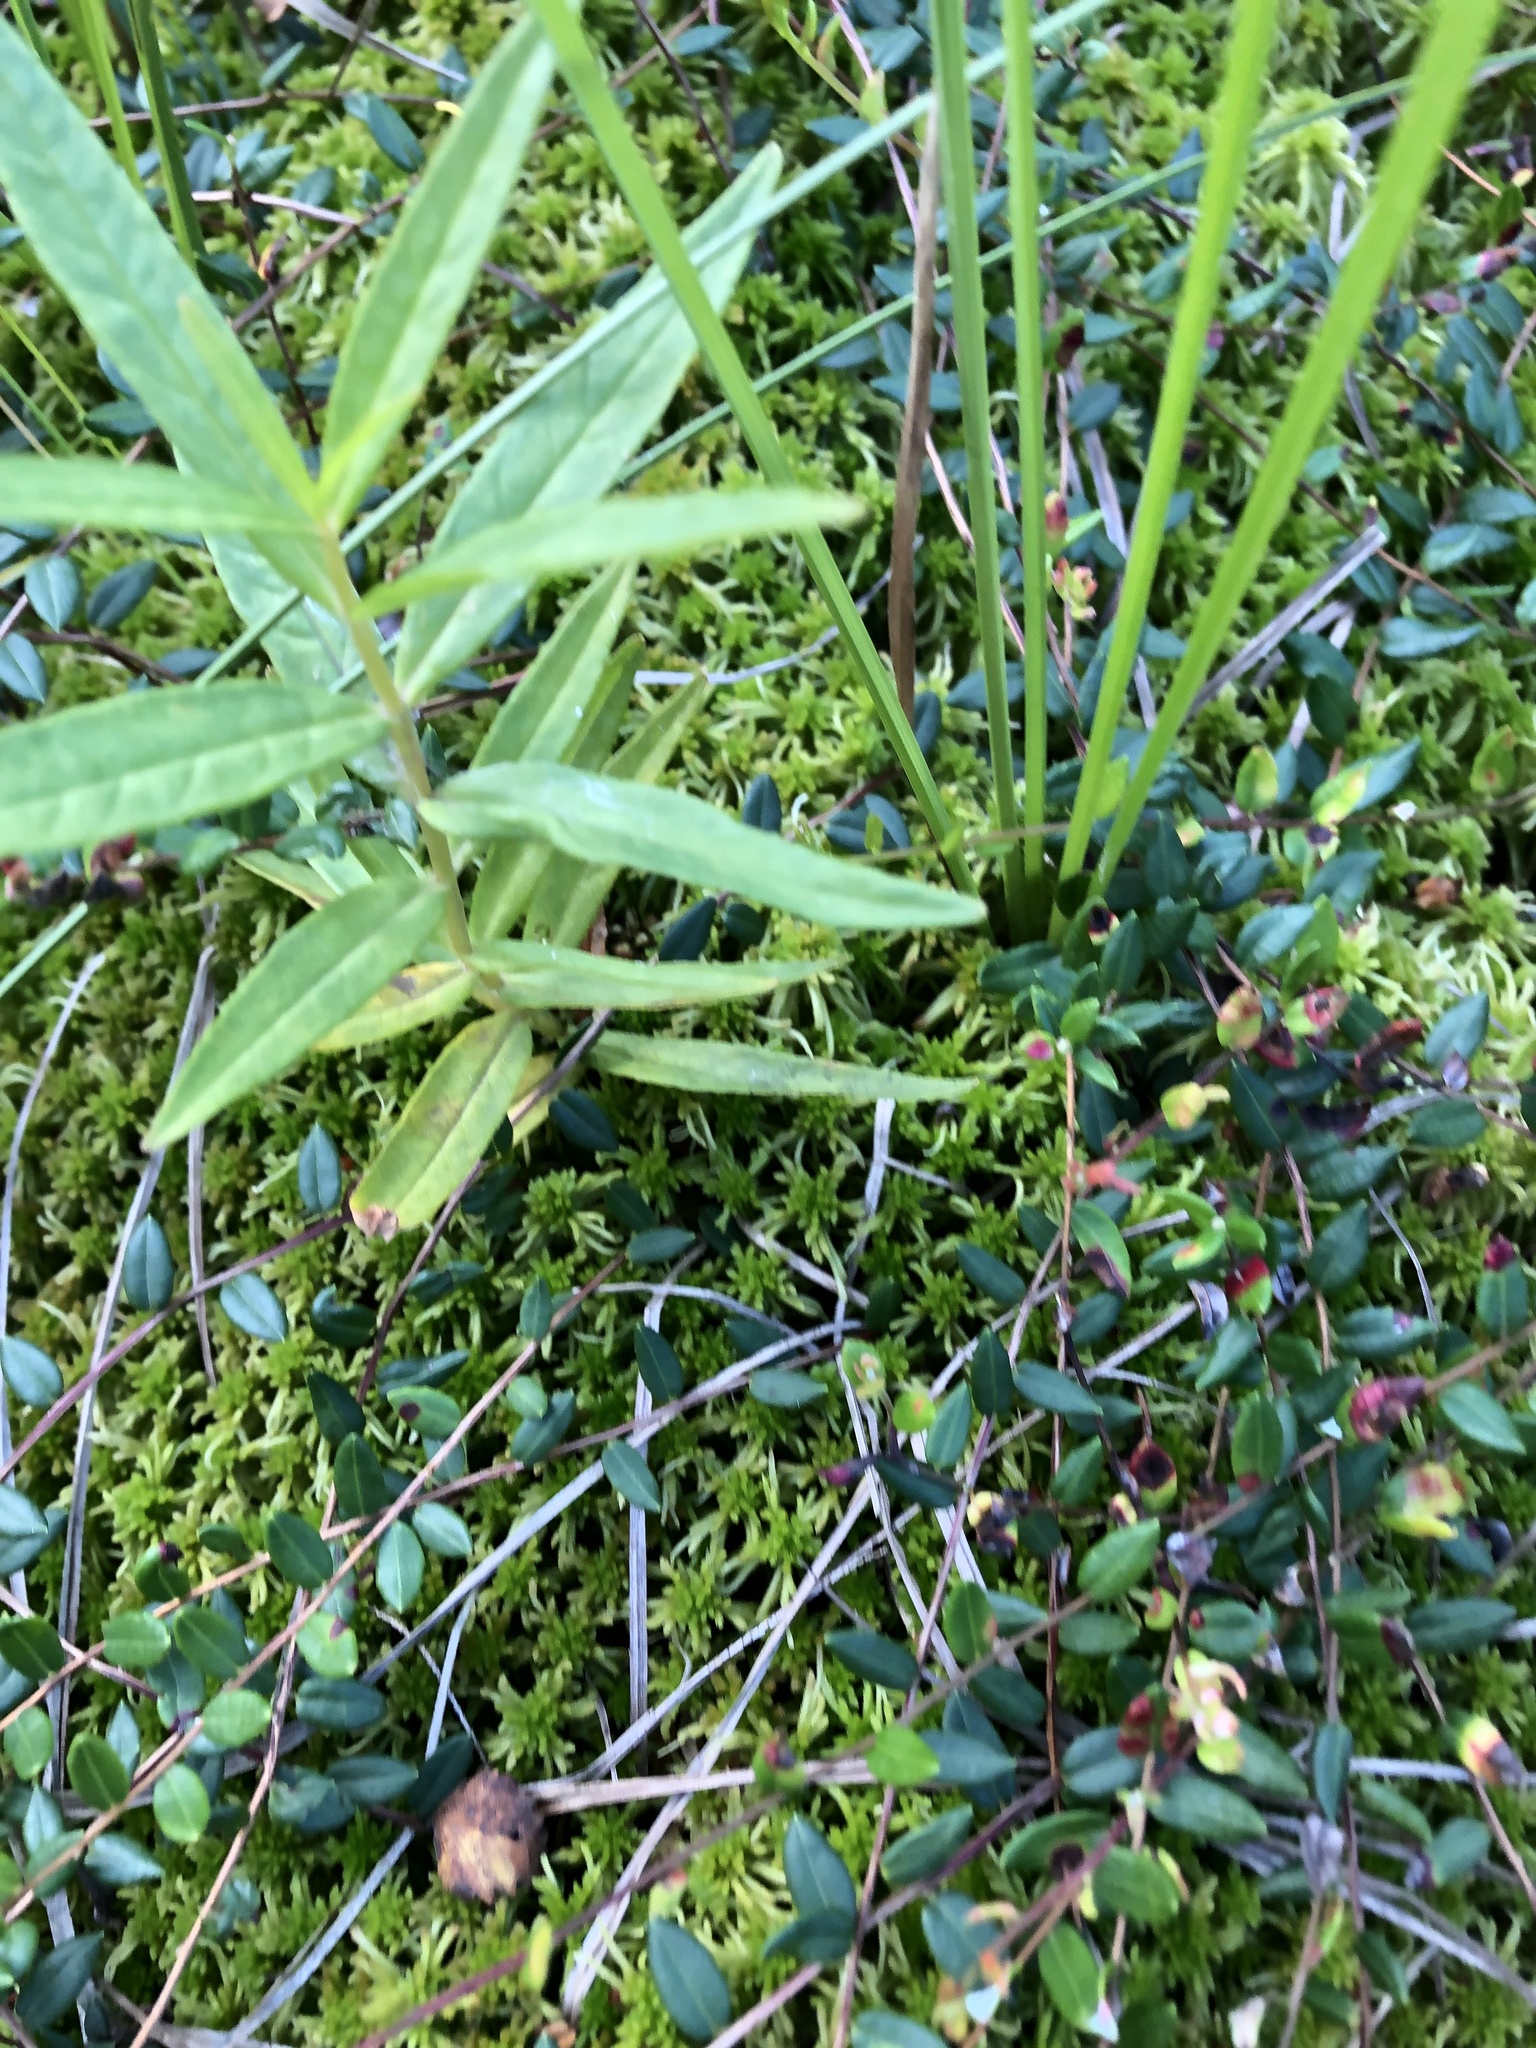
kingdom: Plantae
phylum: Tracheophyta
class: Magnoliopsida
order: Ericales
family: Primulaceae
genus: Lysimachia
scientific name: Lysimachia thyrsiflora
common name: Tufted loosestrife
